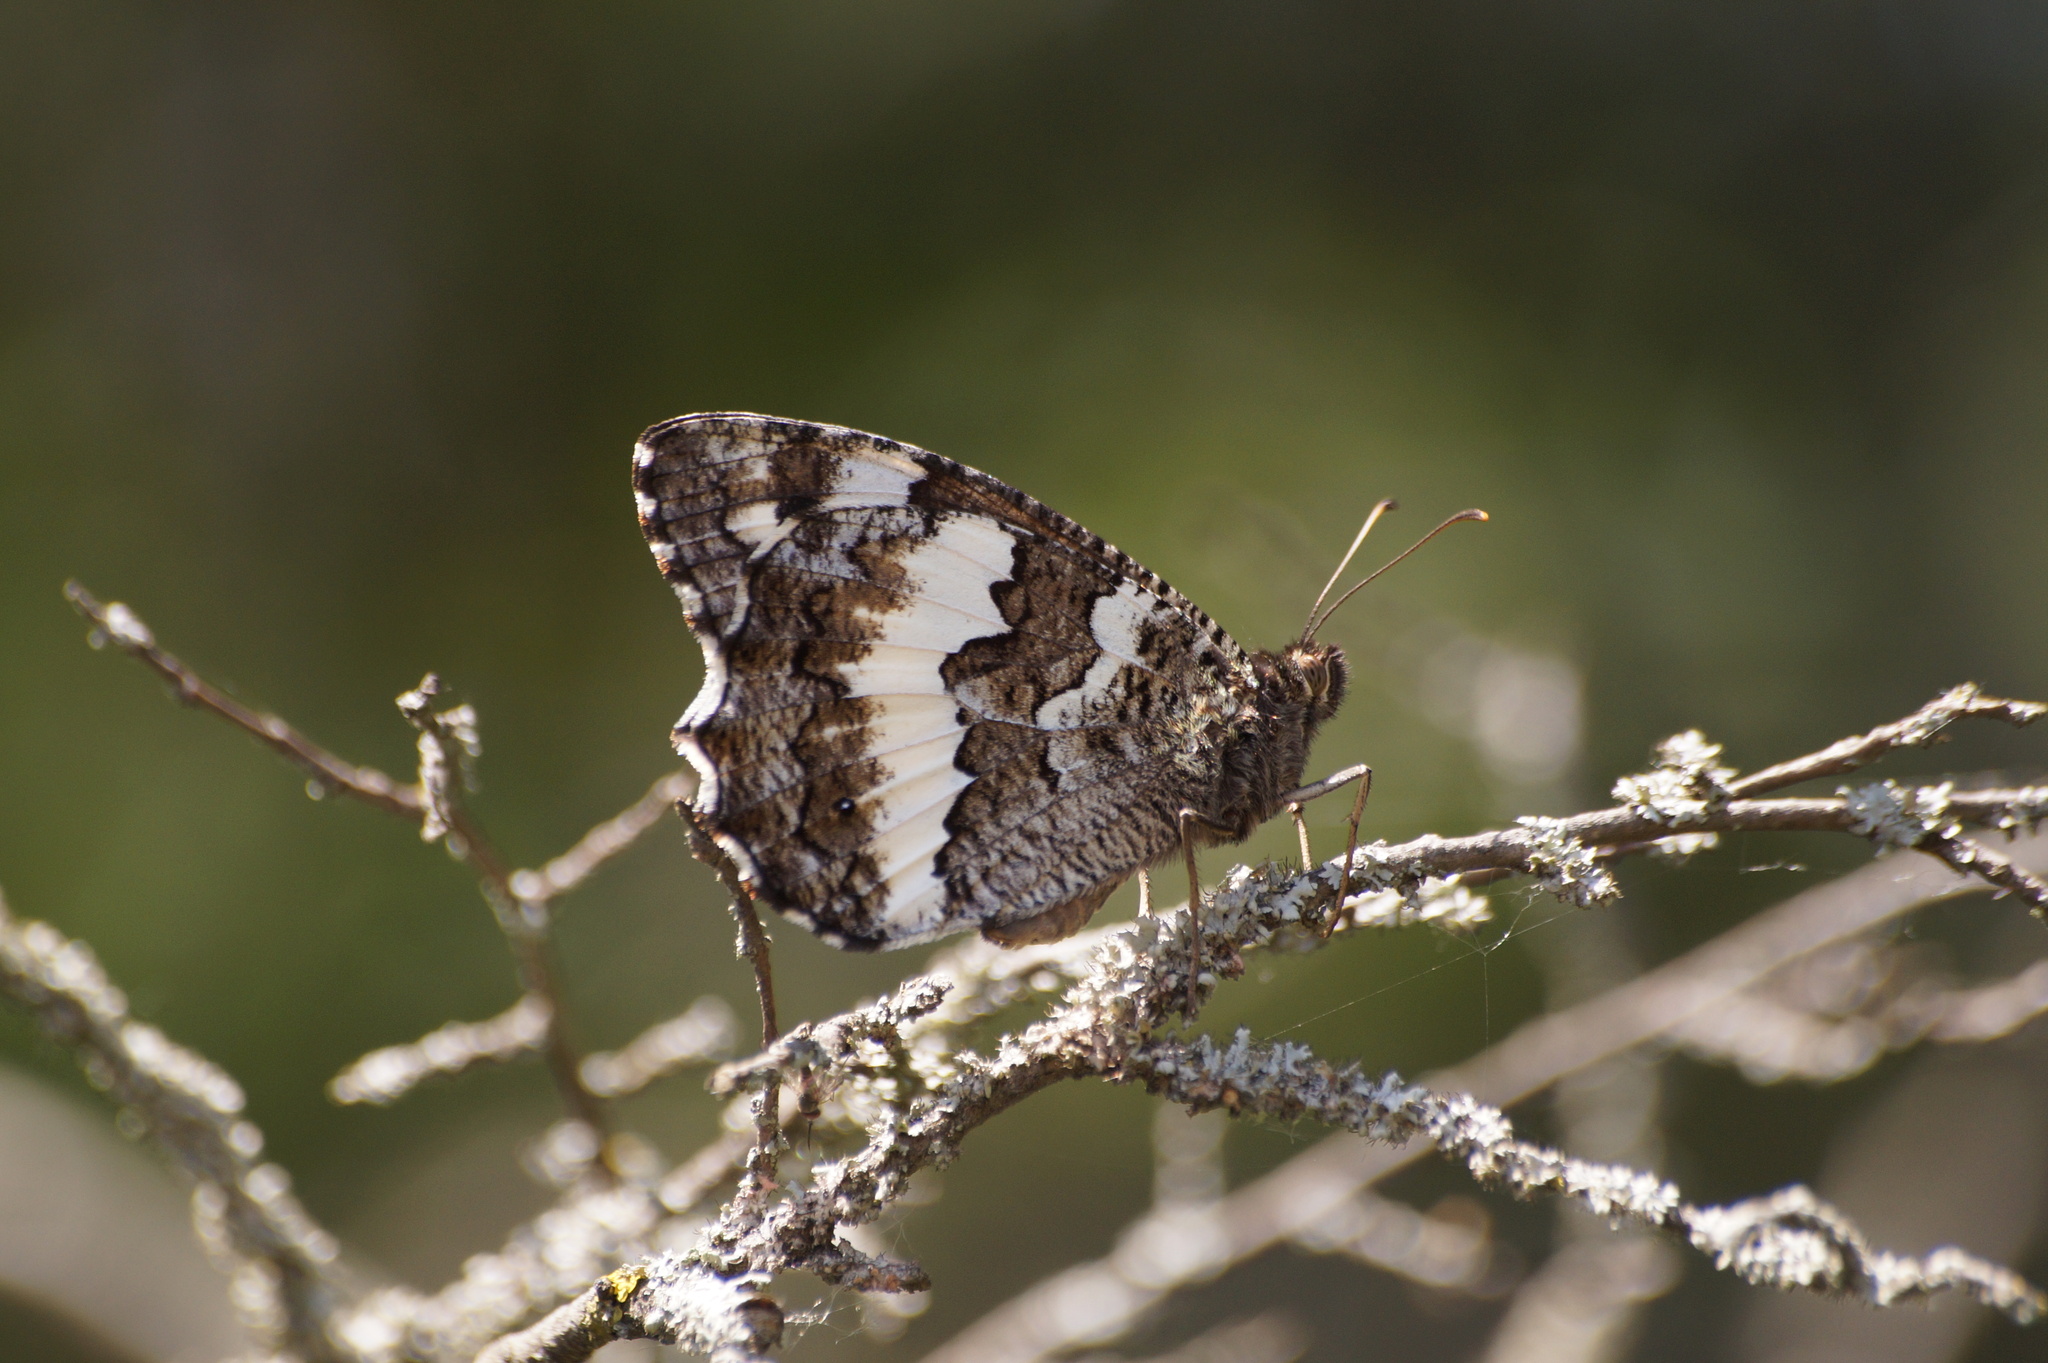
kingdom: Animalia
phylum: Arthropoda
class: Insecta
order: Lepidoptera
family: Lycaenidae
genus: Loweia
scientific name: Loweia tityrus
